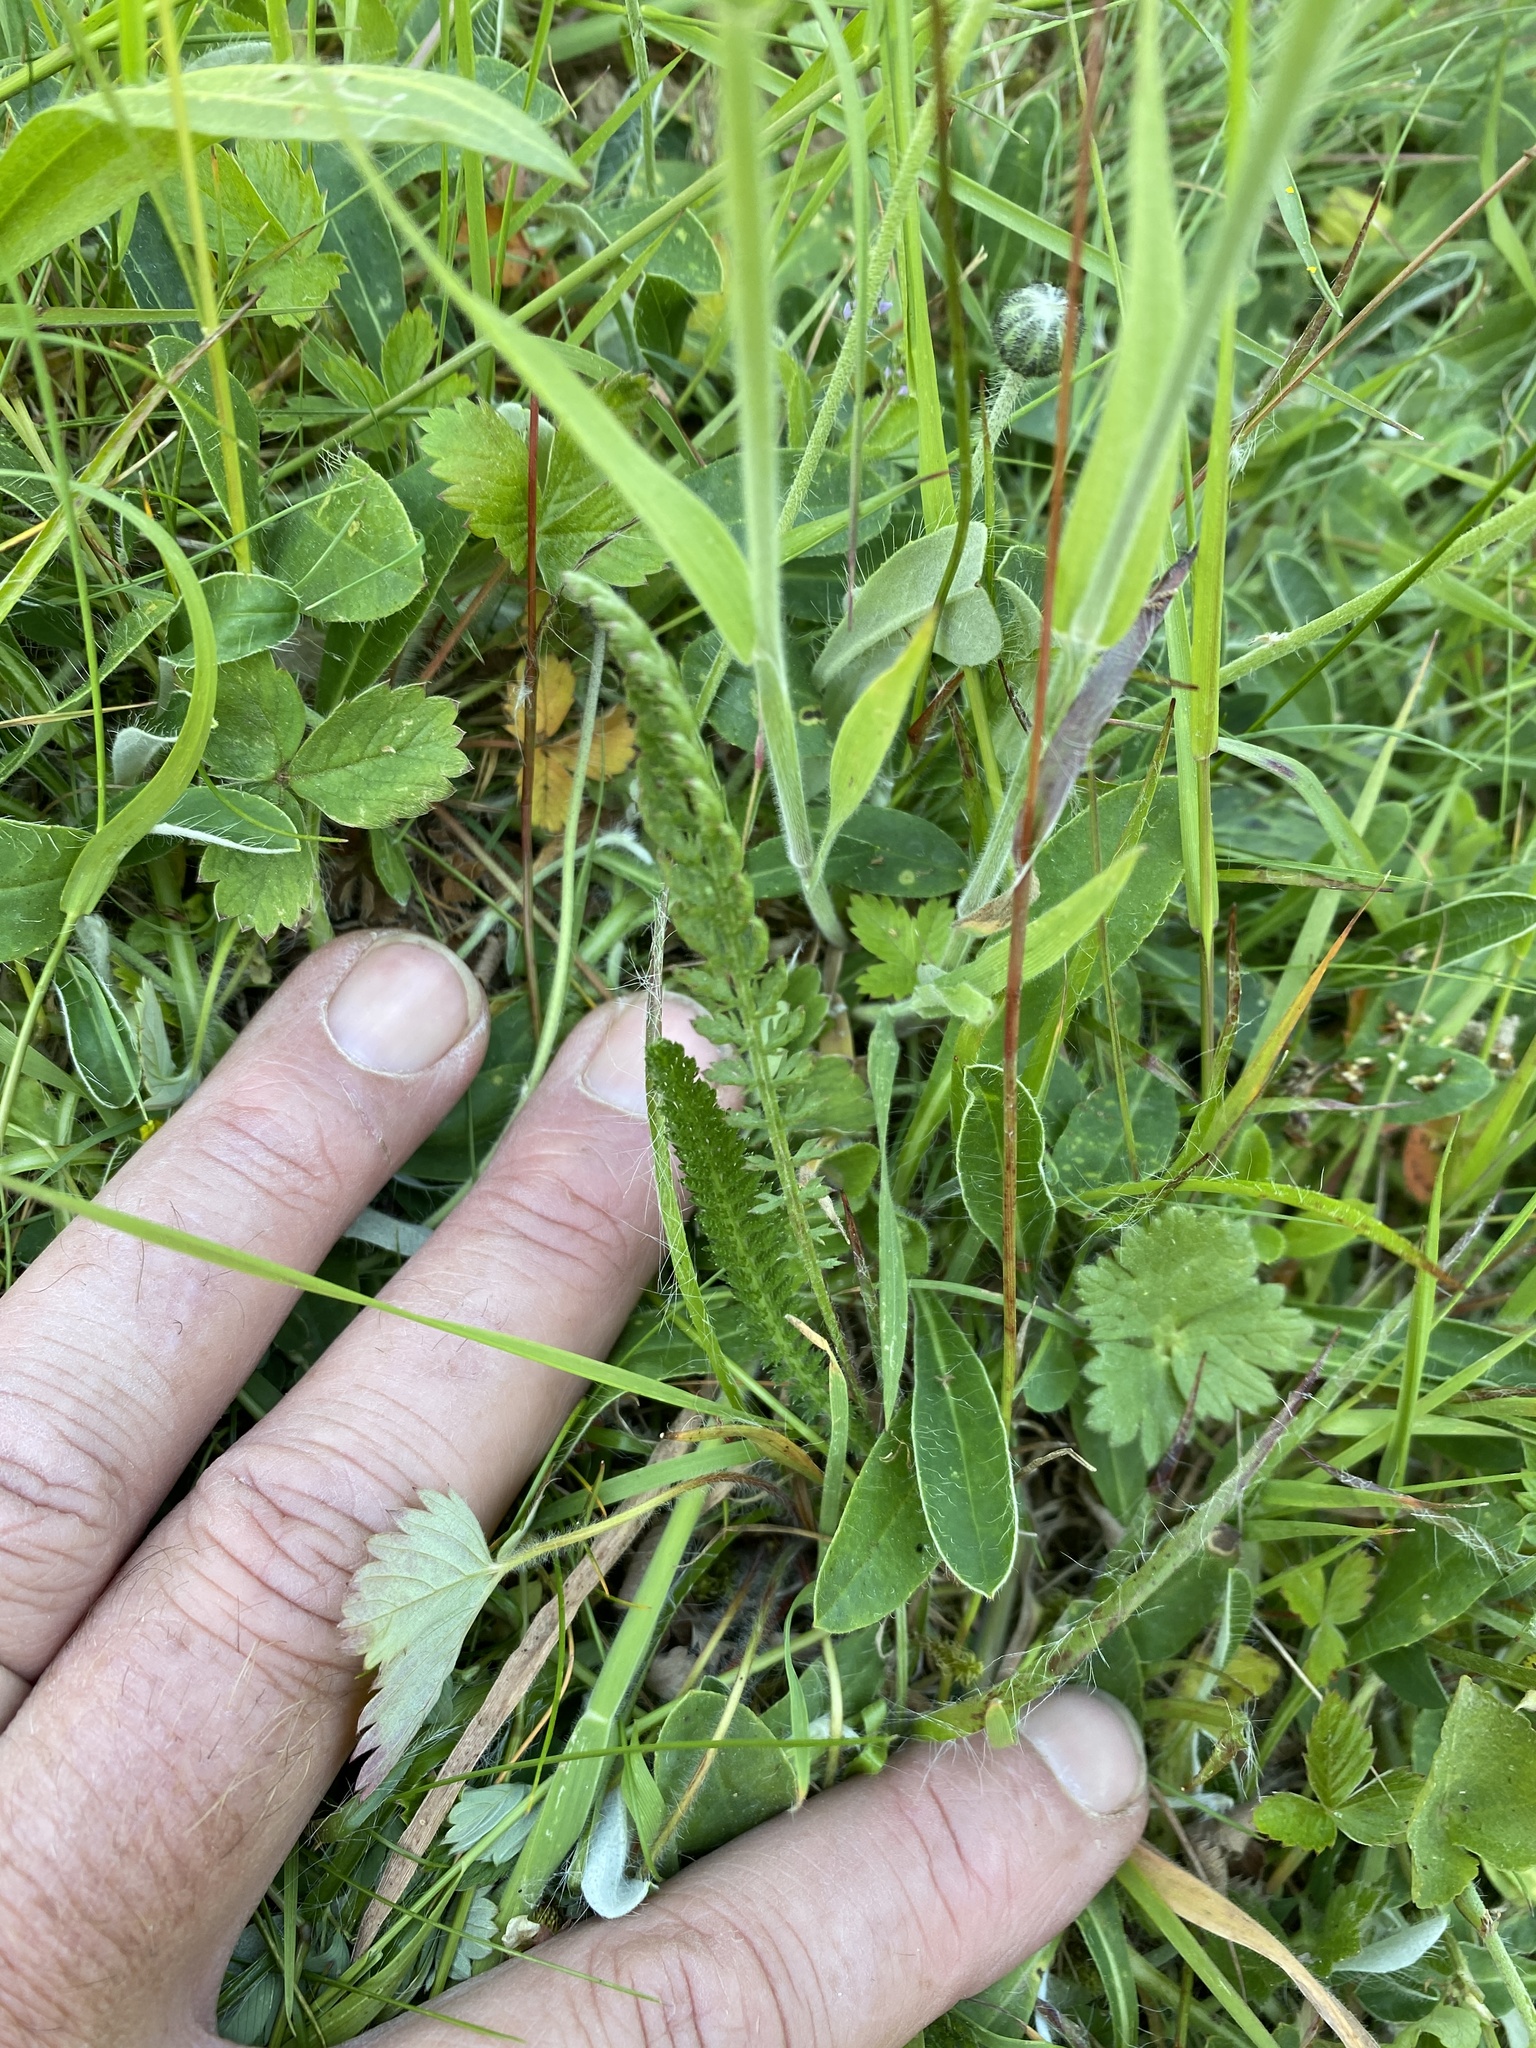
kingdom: Plantae
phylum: Tracheophyta
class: Magnoliopsida
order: Asterales
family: Asteraceae
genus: Achillea
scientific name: Achillea millefolium
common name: Yarrow
